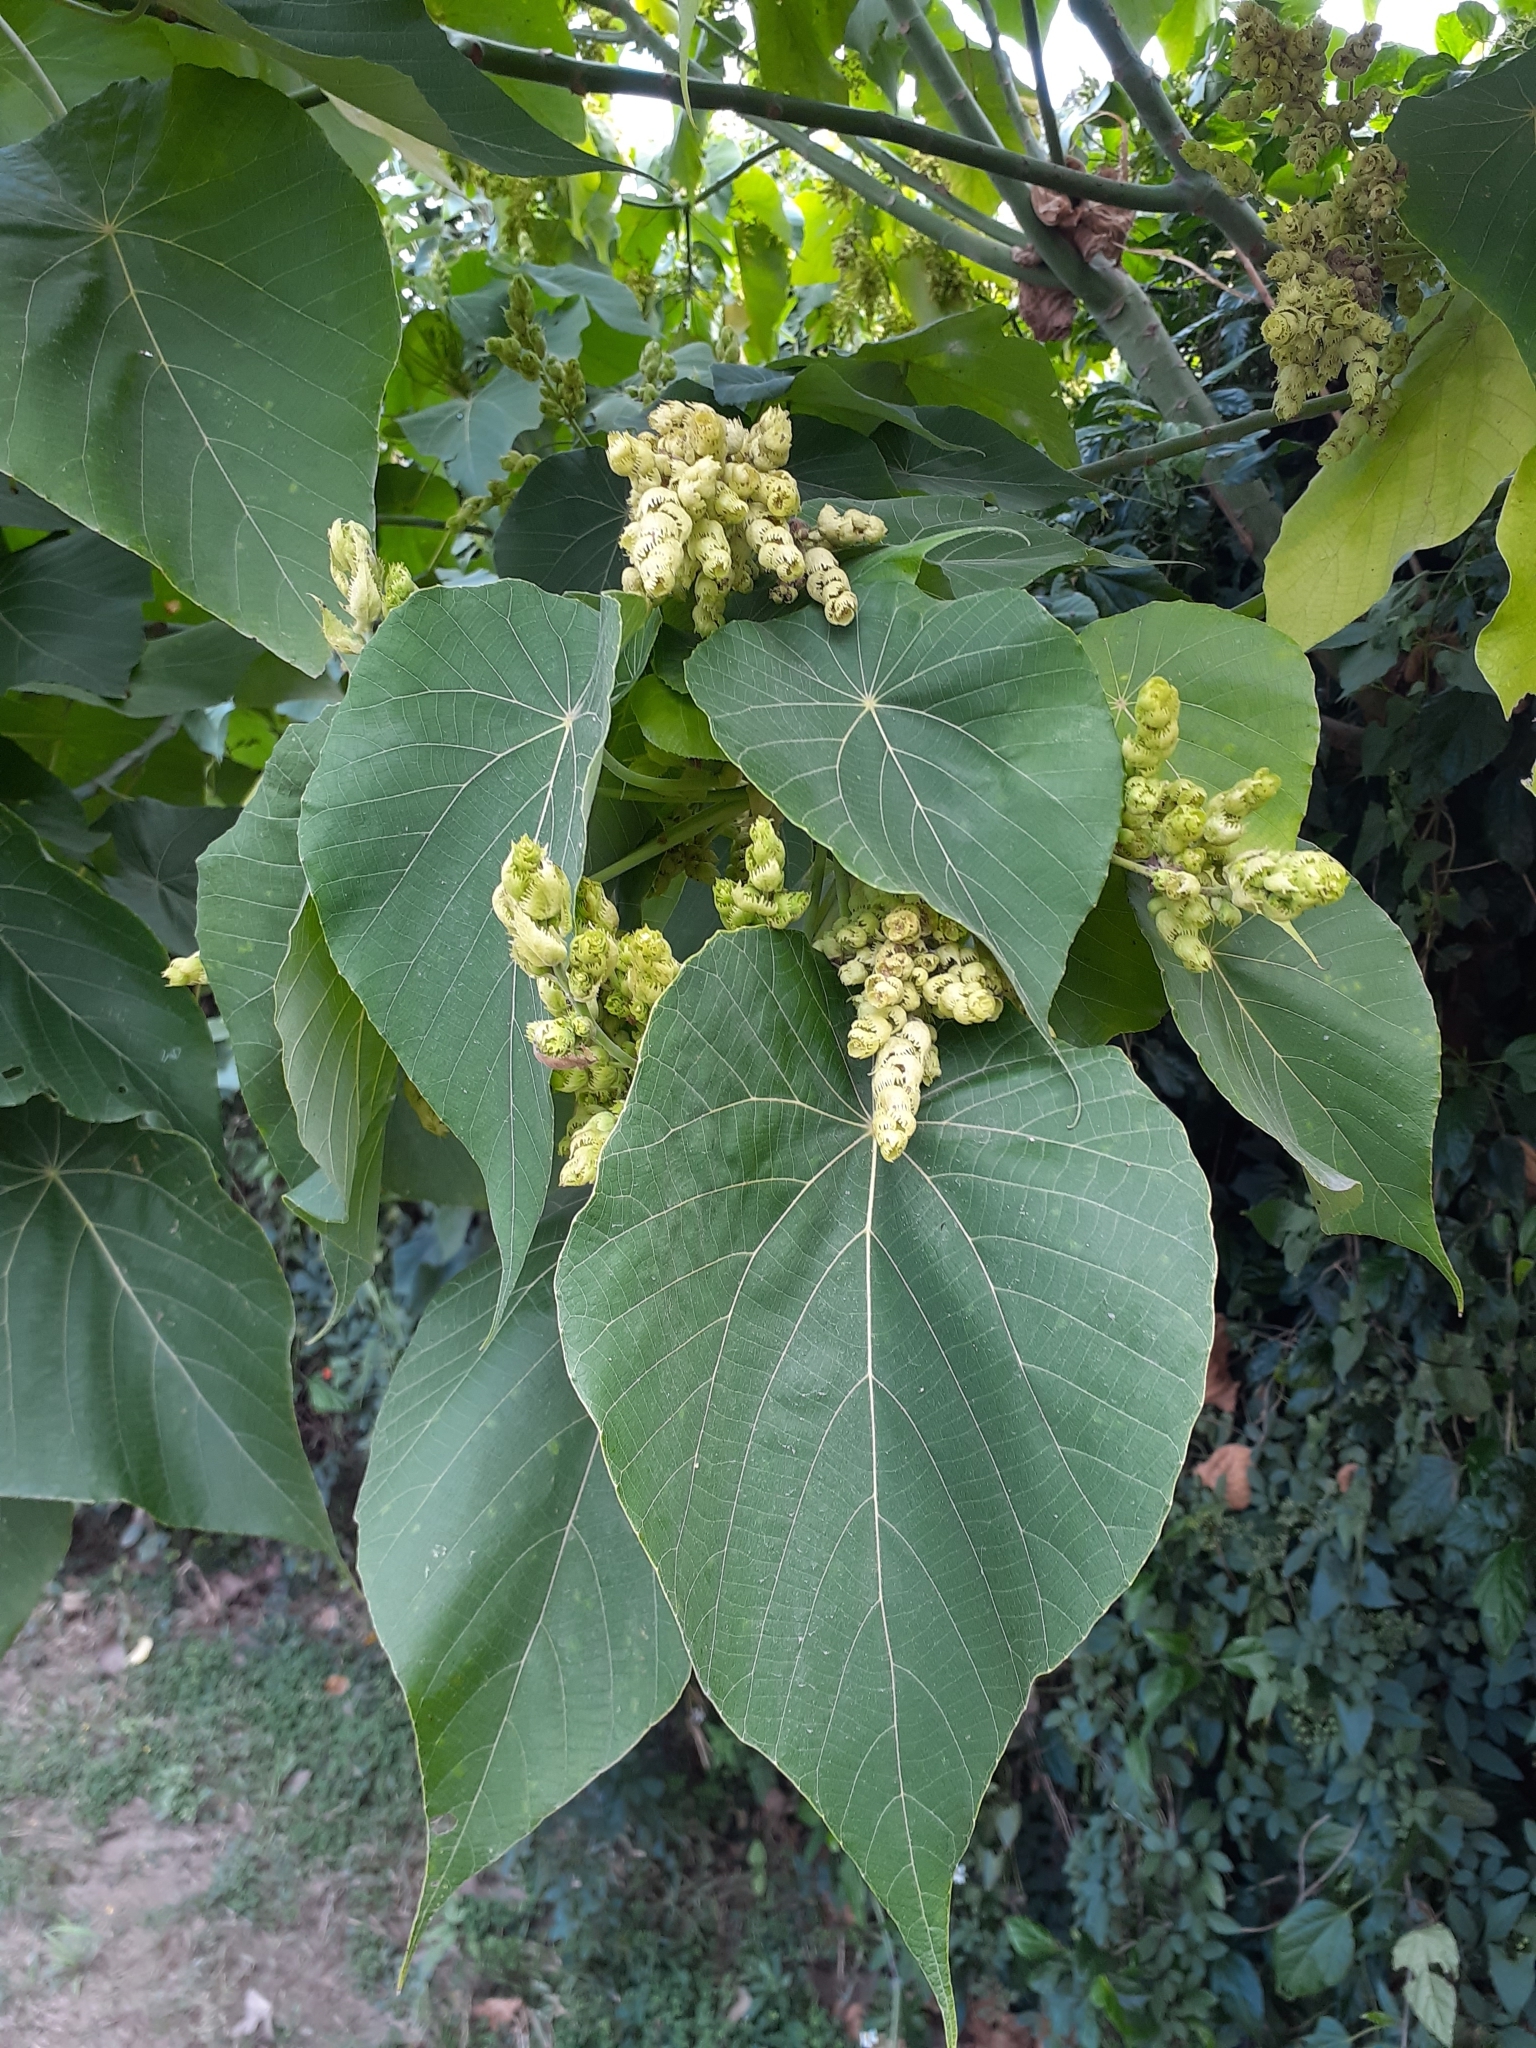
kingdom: Plantae
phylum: Tracheophyta
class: Magnoliopsida
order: Malpighiales
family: Euphorbiaceae
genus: Macaranga
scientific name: Macaranga tanarius
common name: Parasol leaf tree
